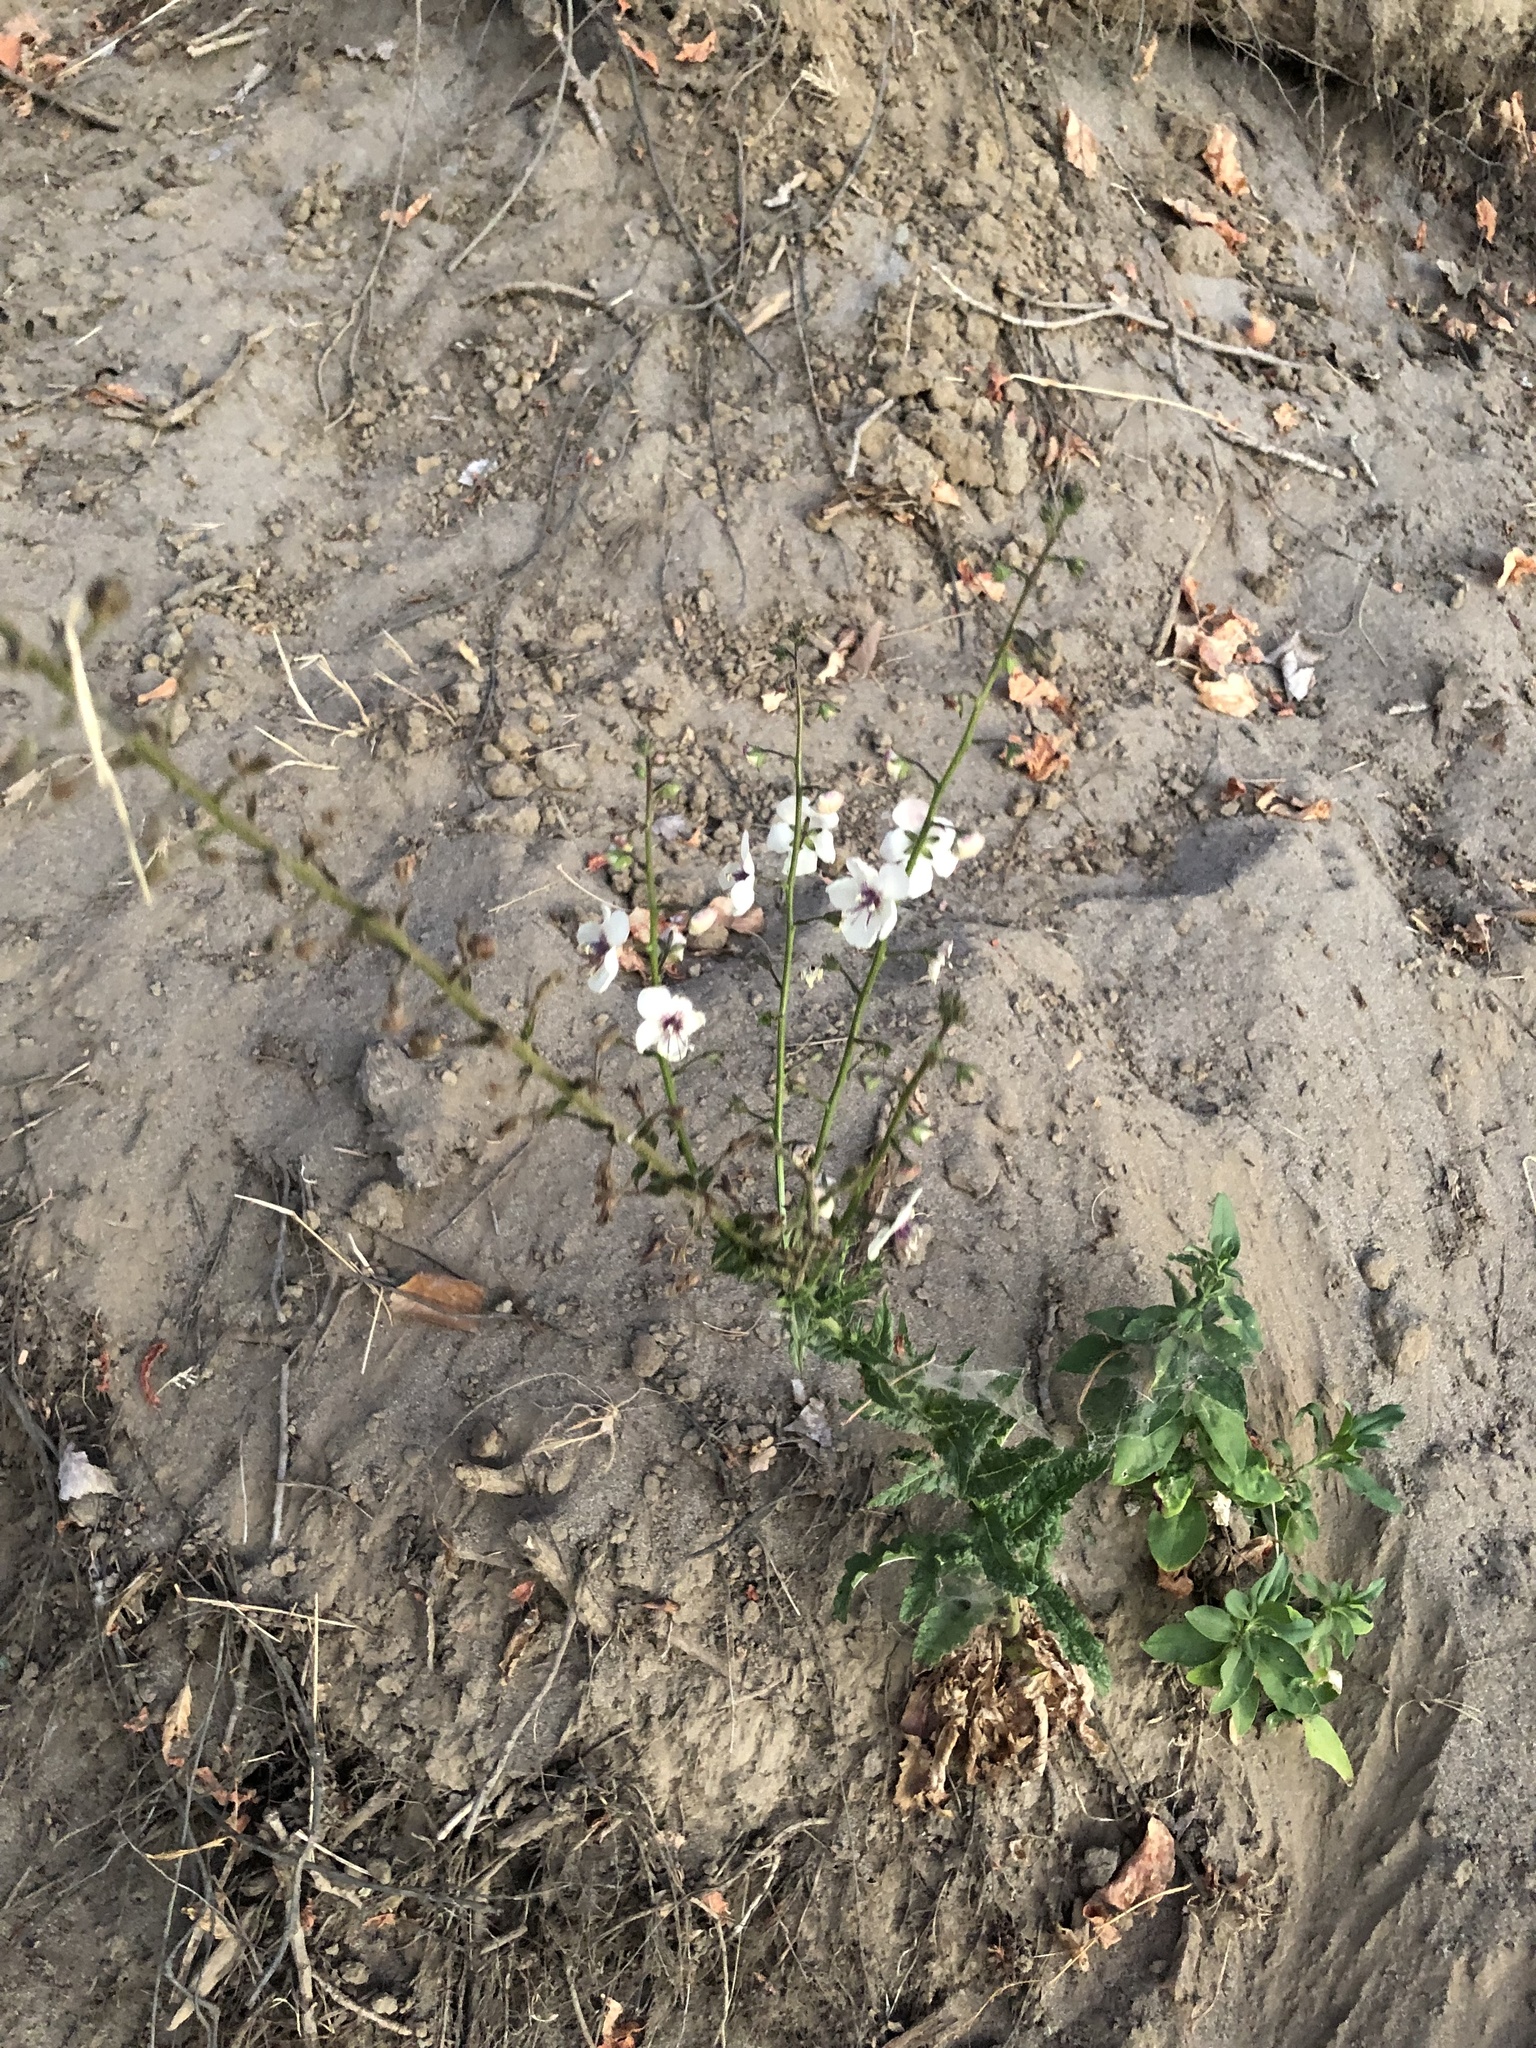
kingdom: Plantae
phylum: Tracheophyta
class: Magnoliopsida
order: Lamiales
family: Scrophulariaceae
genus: Verbascum
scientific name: Verbascum blattaria
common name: Moth mullein
